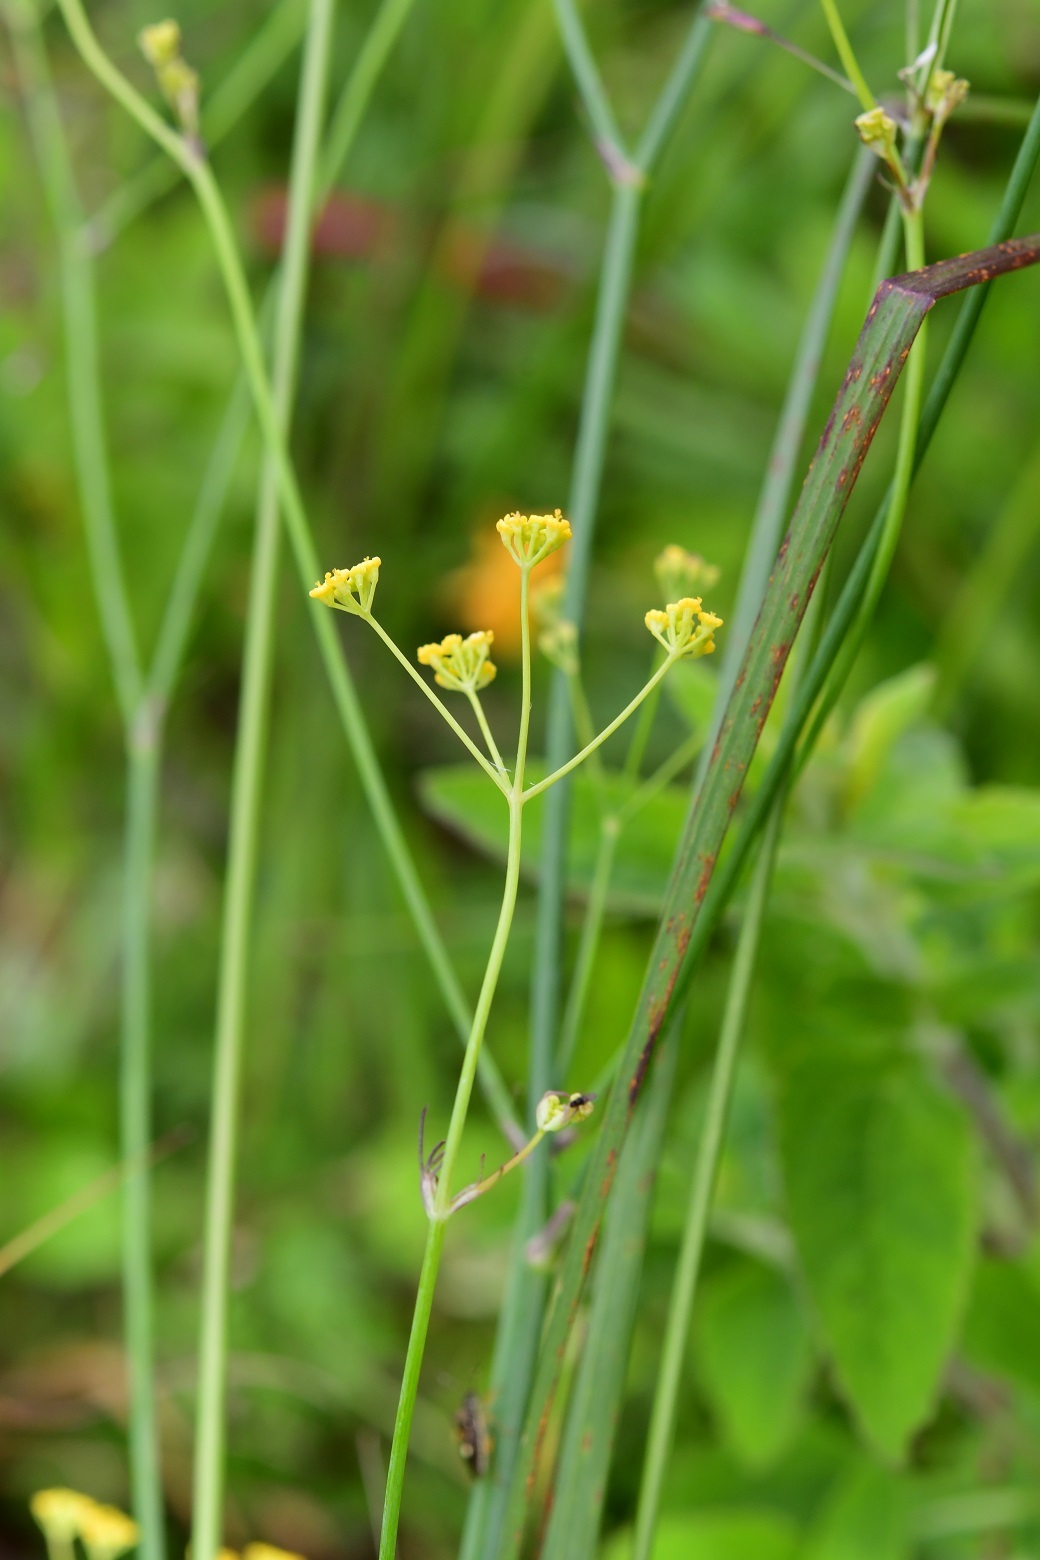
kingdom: Plantae
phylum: Tracheophyta
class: Magnoliopsida
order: Apiales
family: Apiaceae
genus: Donnellsmithia
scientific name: Donnellsmithia juncea
